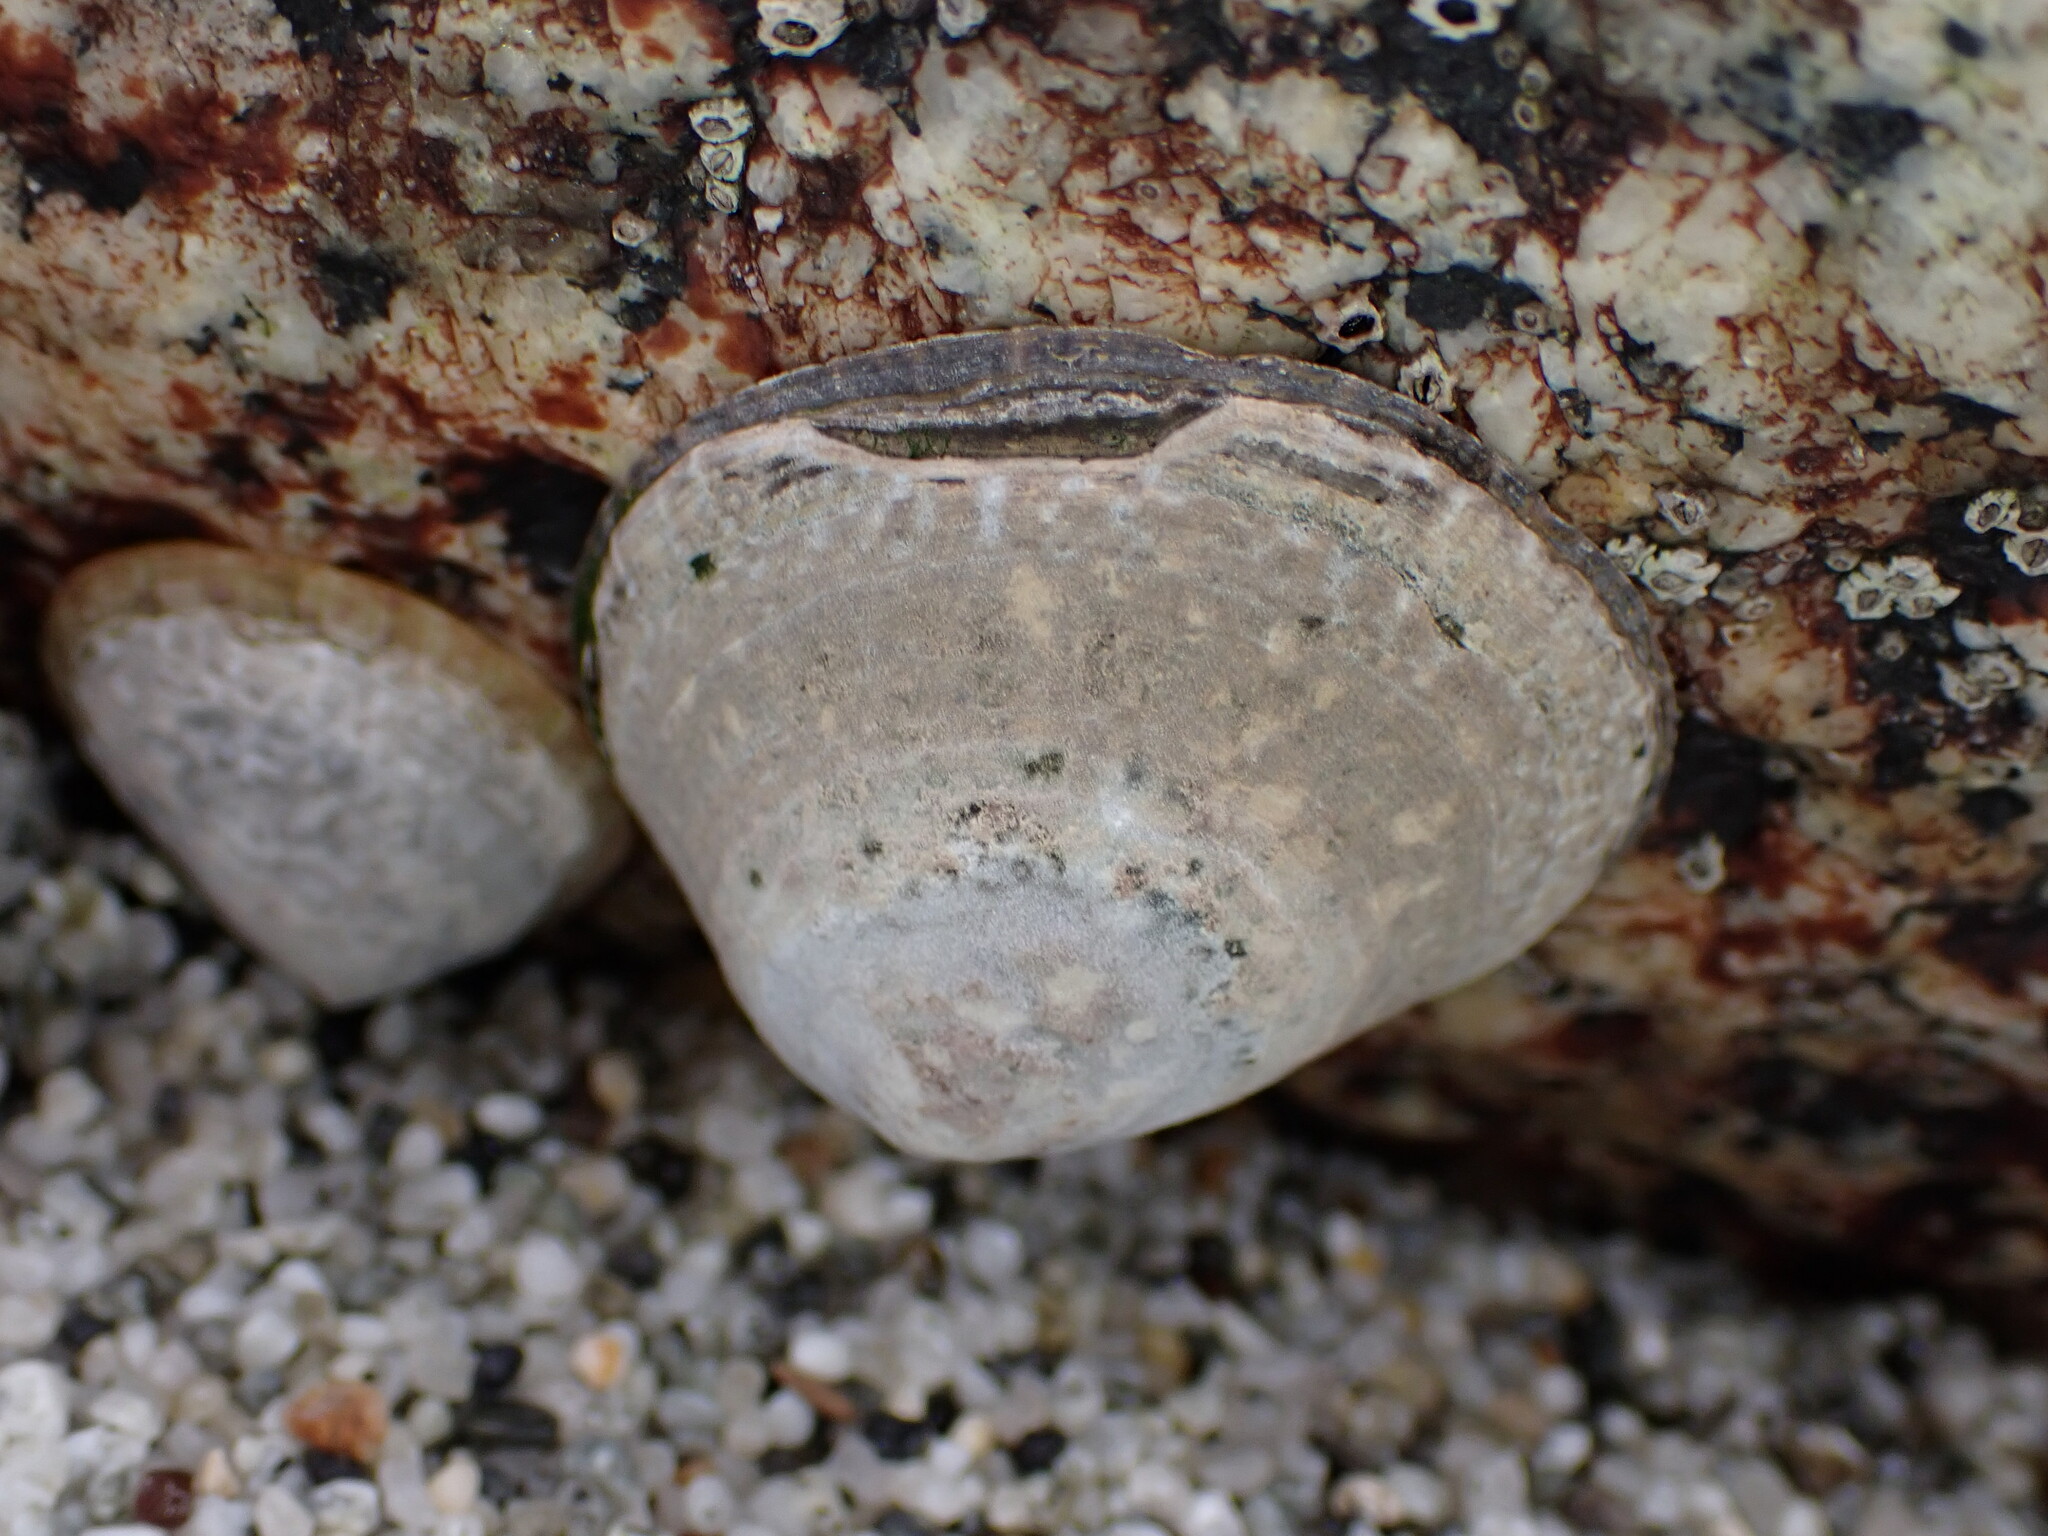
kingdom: Animalia
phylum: Mollusca
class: Gastropoda
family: Lottiidae
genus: Lottia
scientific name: Lottia persona
